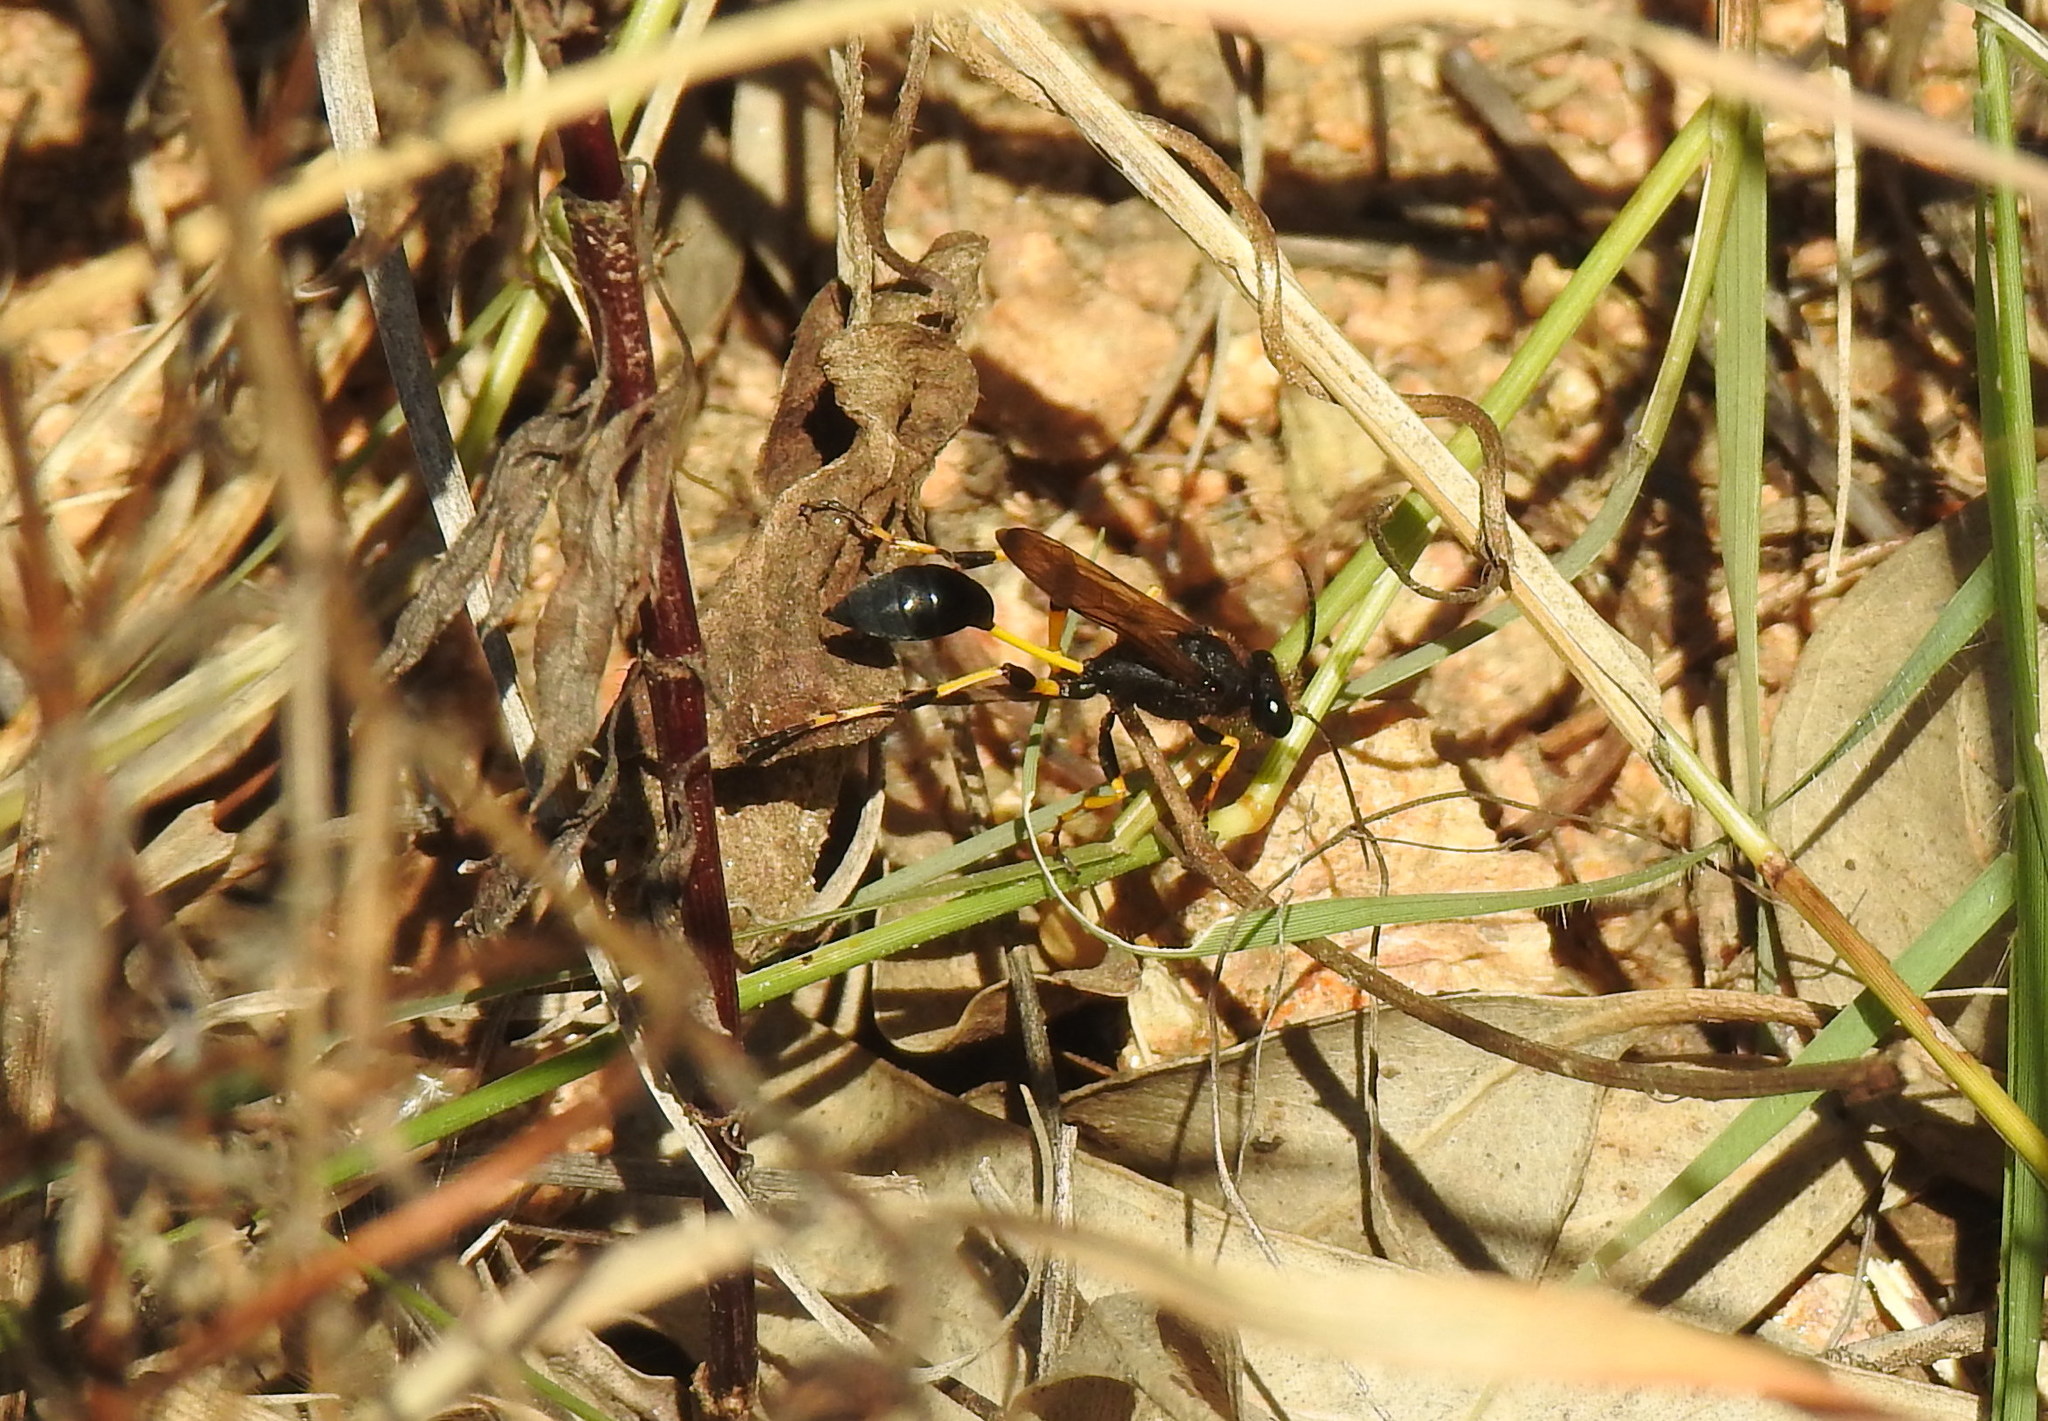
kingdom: Animalia
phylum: Arthropoda
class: Insecta
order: Hymenoptera
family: Sphecidae
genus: Sceliphron
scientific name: Sceliphron spirifex
